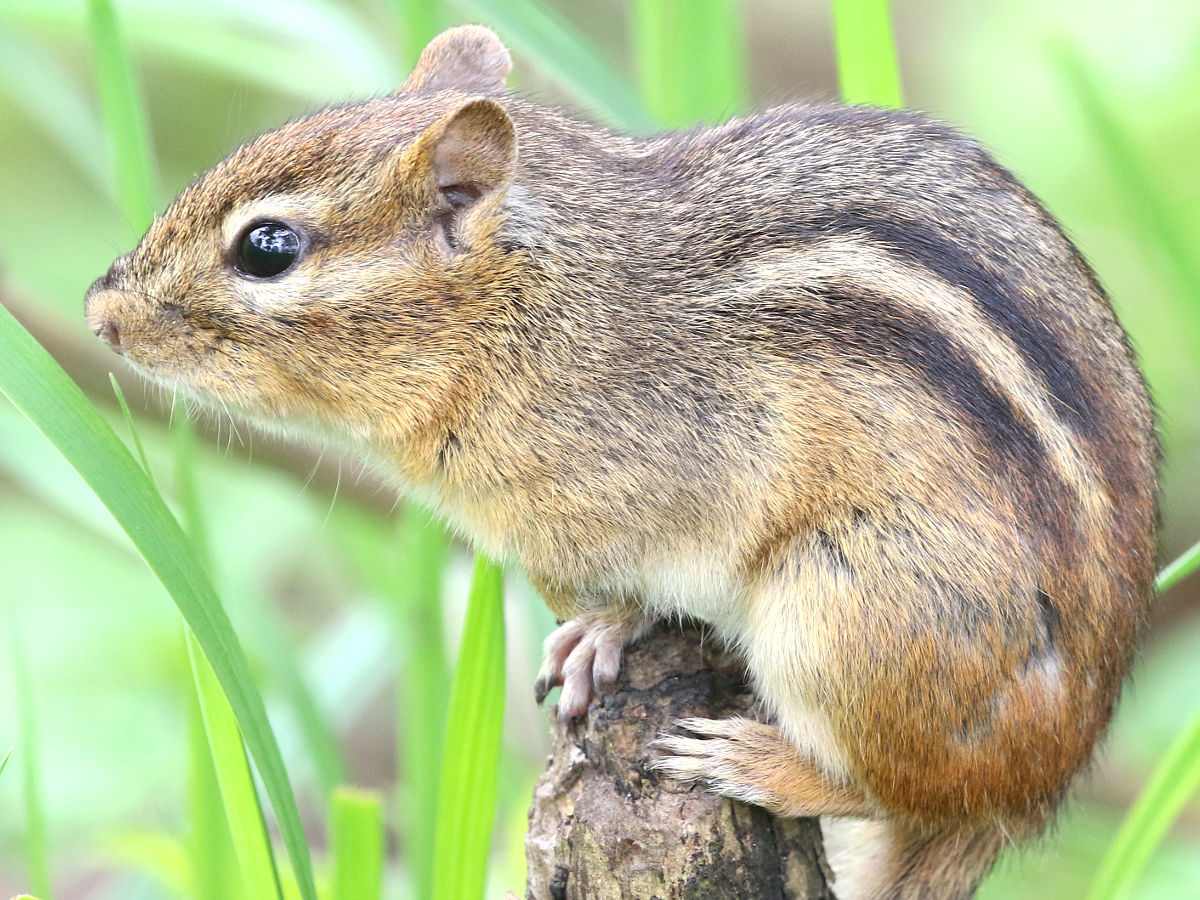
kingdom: Animalia
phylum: Chordata
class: Mammalia
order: Rodentia
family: Sciuridae
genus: Tamias
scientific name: Tamias striatus
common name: Eastern chipmunk
